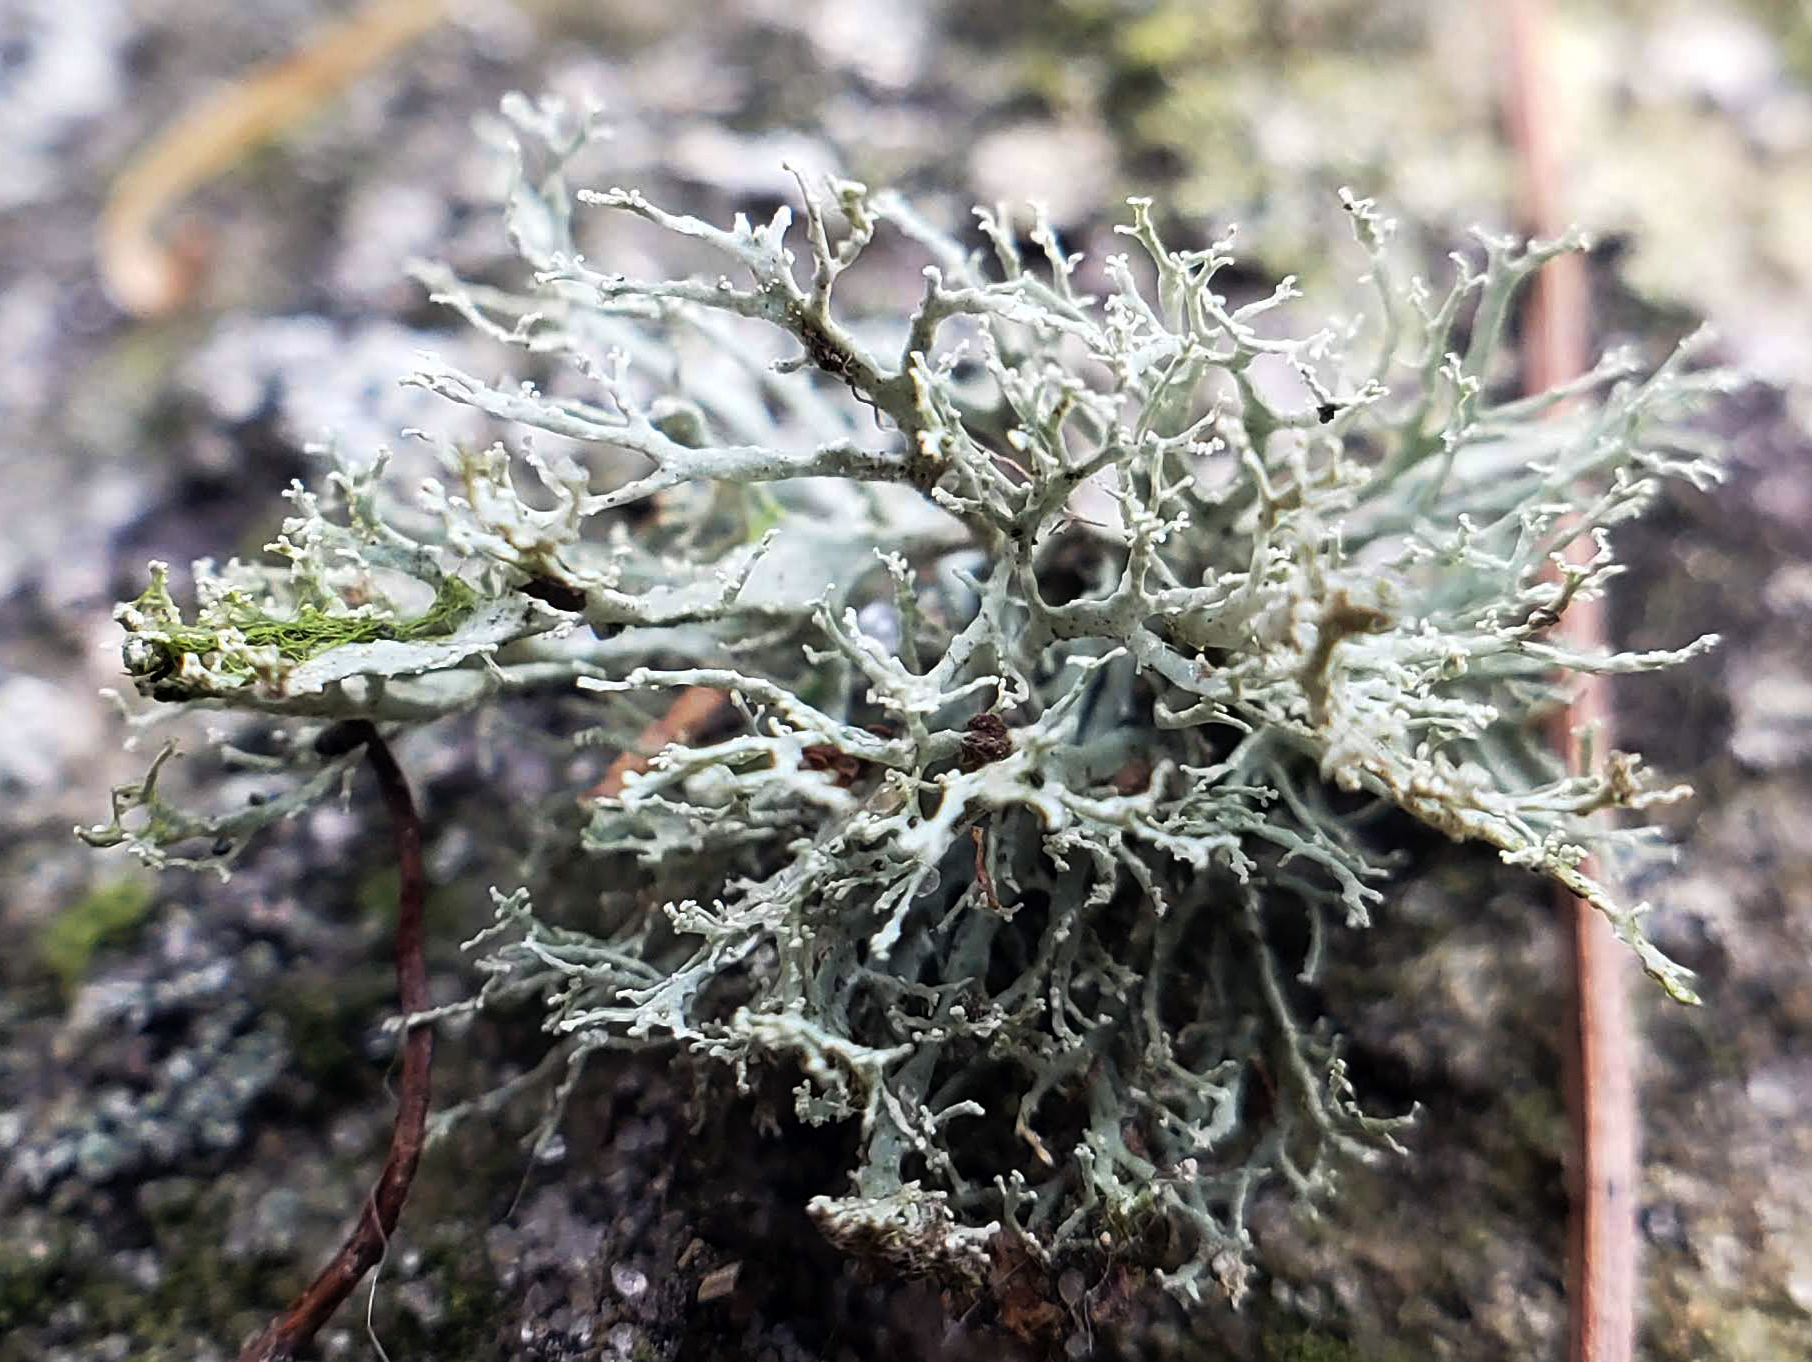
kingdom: Fungi
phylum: Ascomycota
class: Lecanoromycetes
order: Lecanorales
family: Ramalinaceae
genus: Ramalina
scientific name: Ramalina intermedia
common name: Rock bushy lichen
